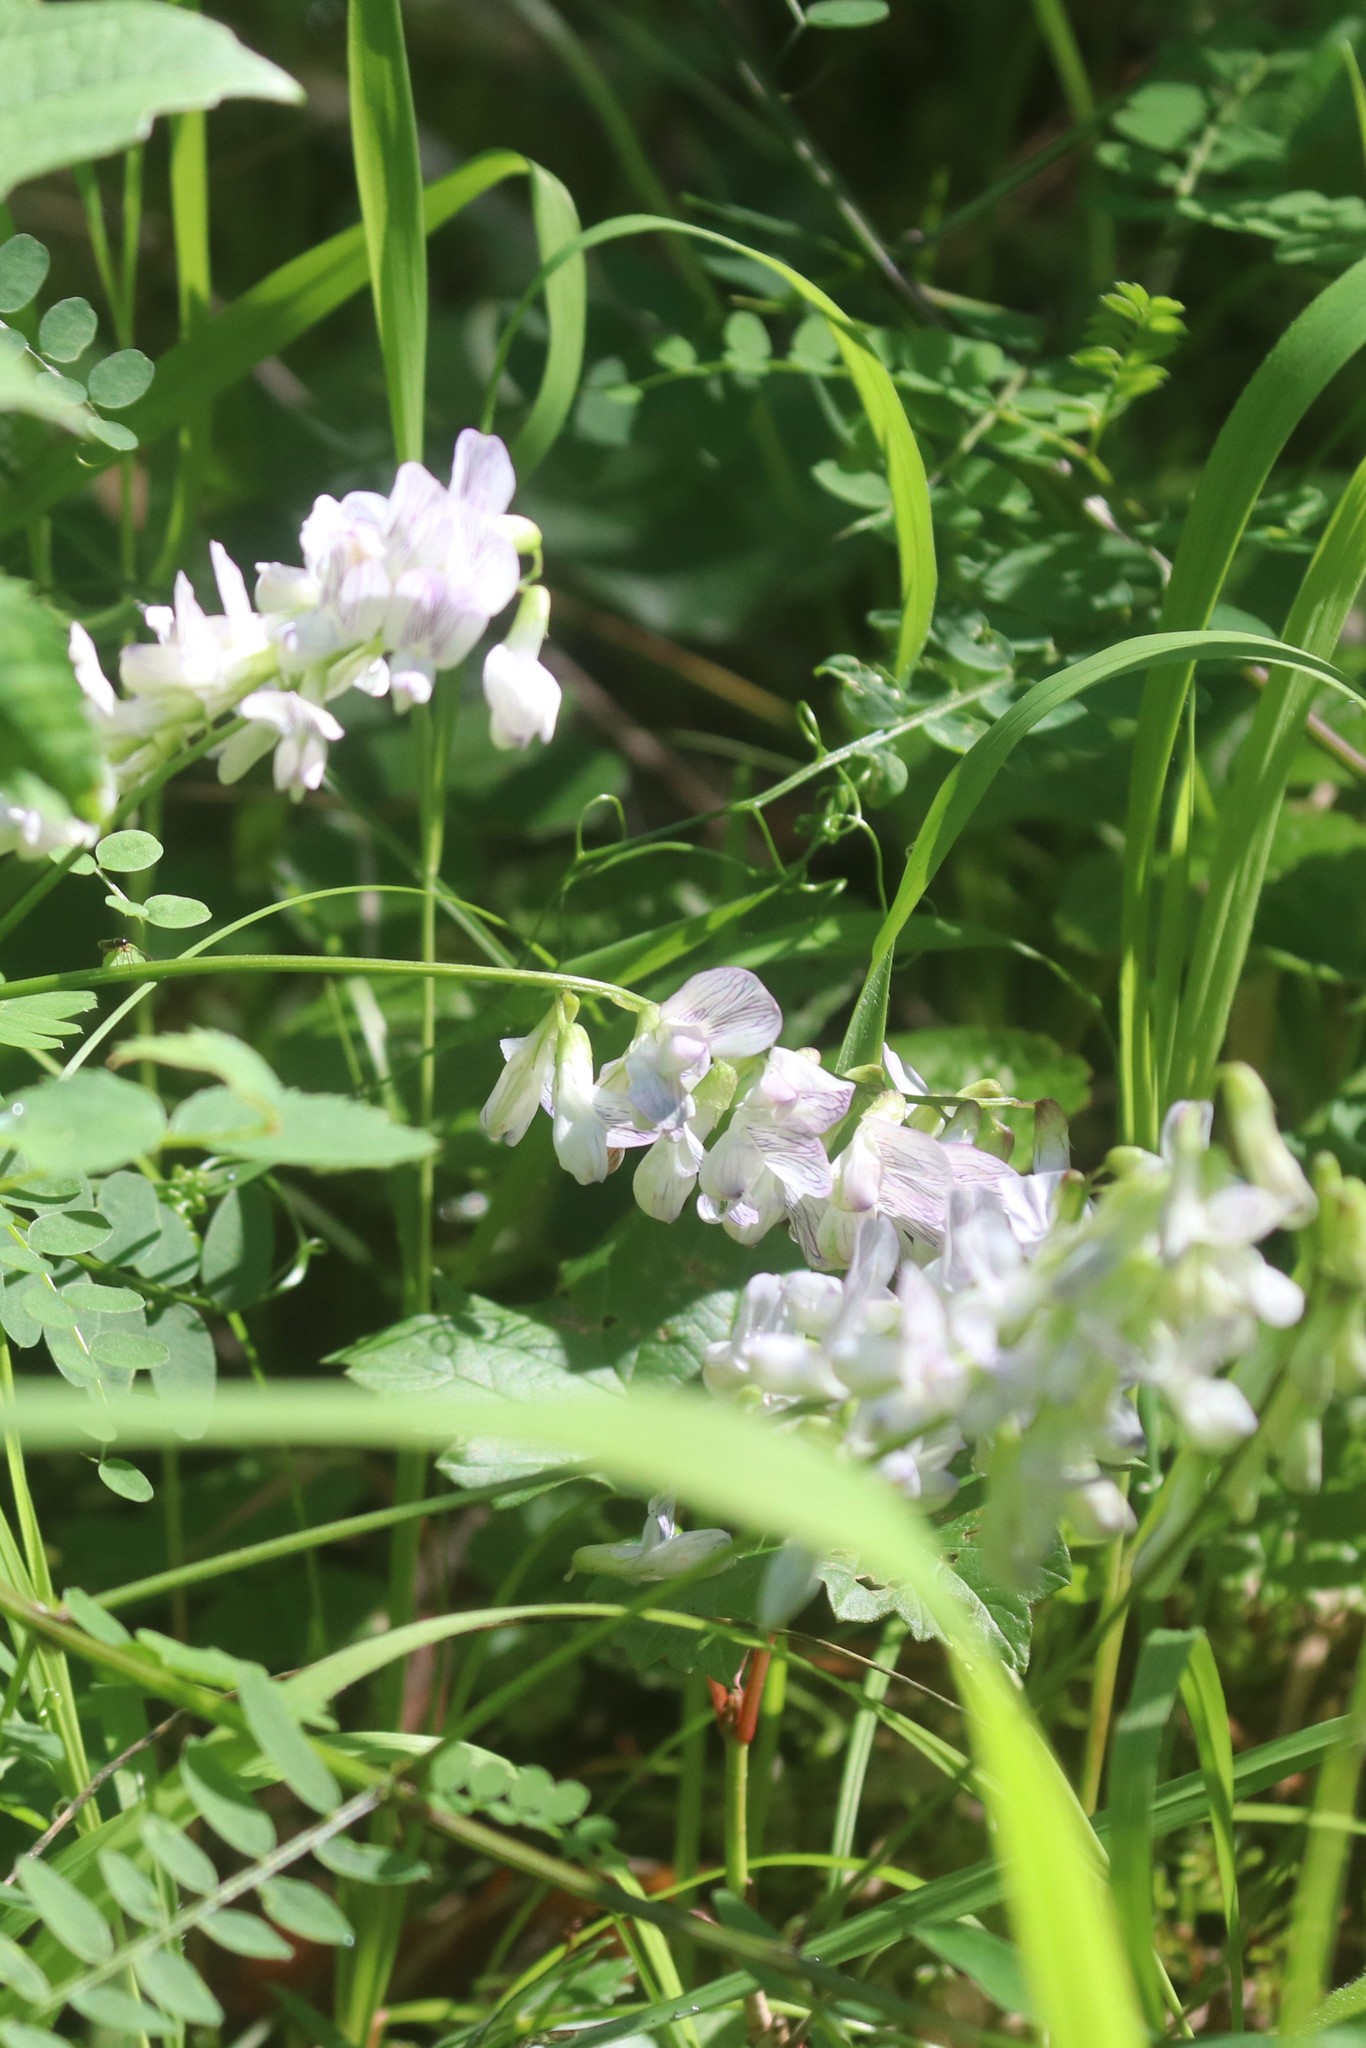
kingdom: Plantae
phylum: Tracheophyta
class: Magnoliopsida
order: Fabales
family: Fabaceae
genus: Vicia
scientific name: Vicia sylvatica
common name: Wood vetch
